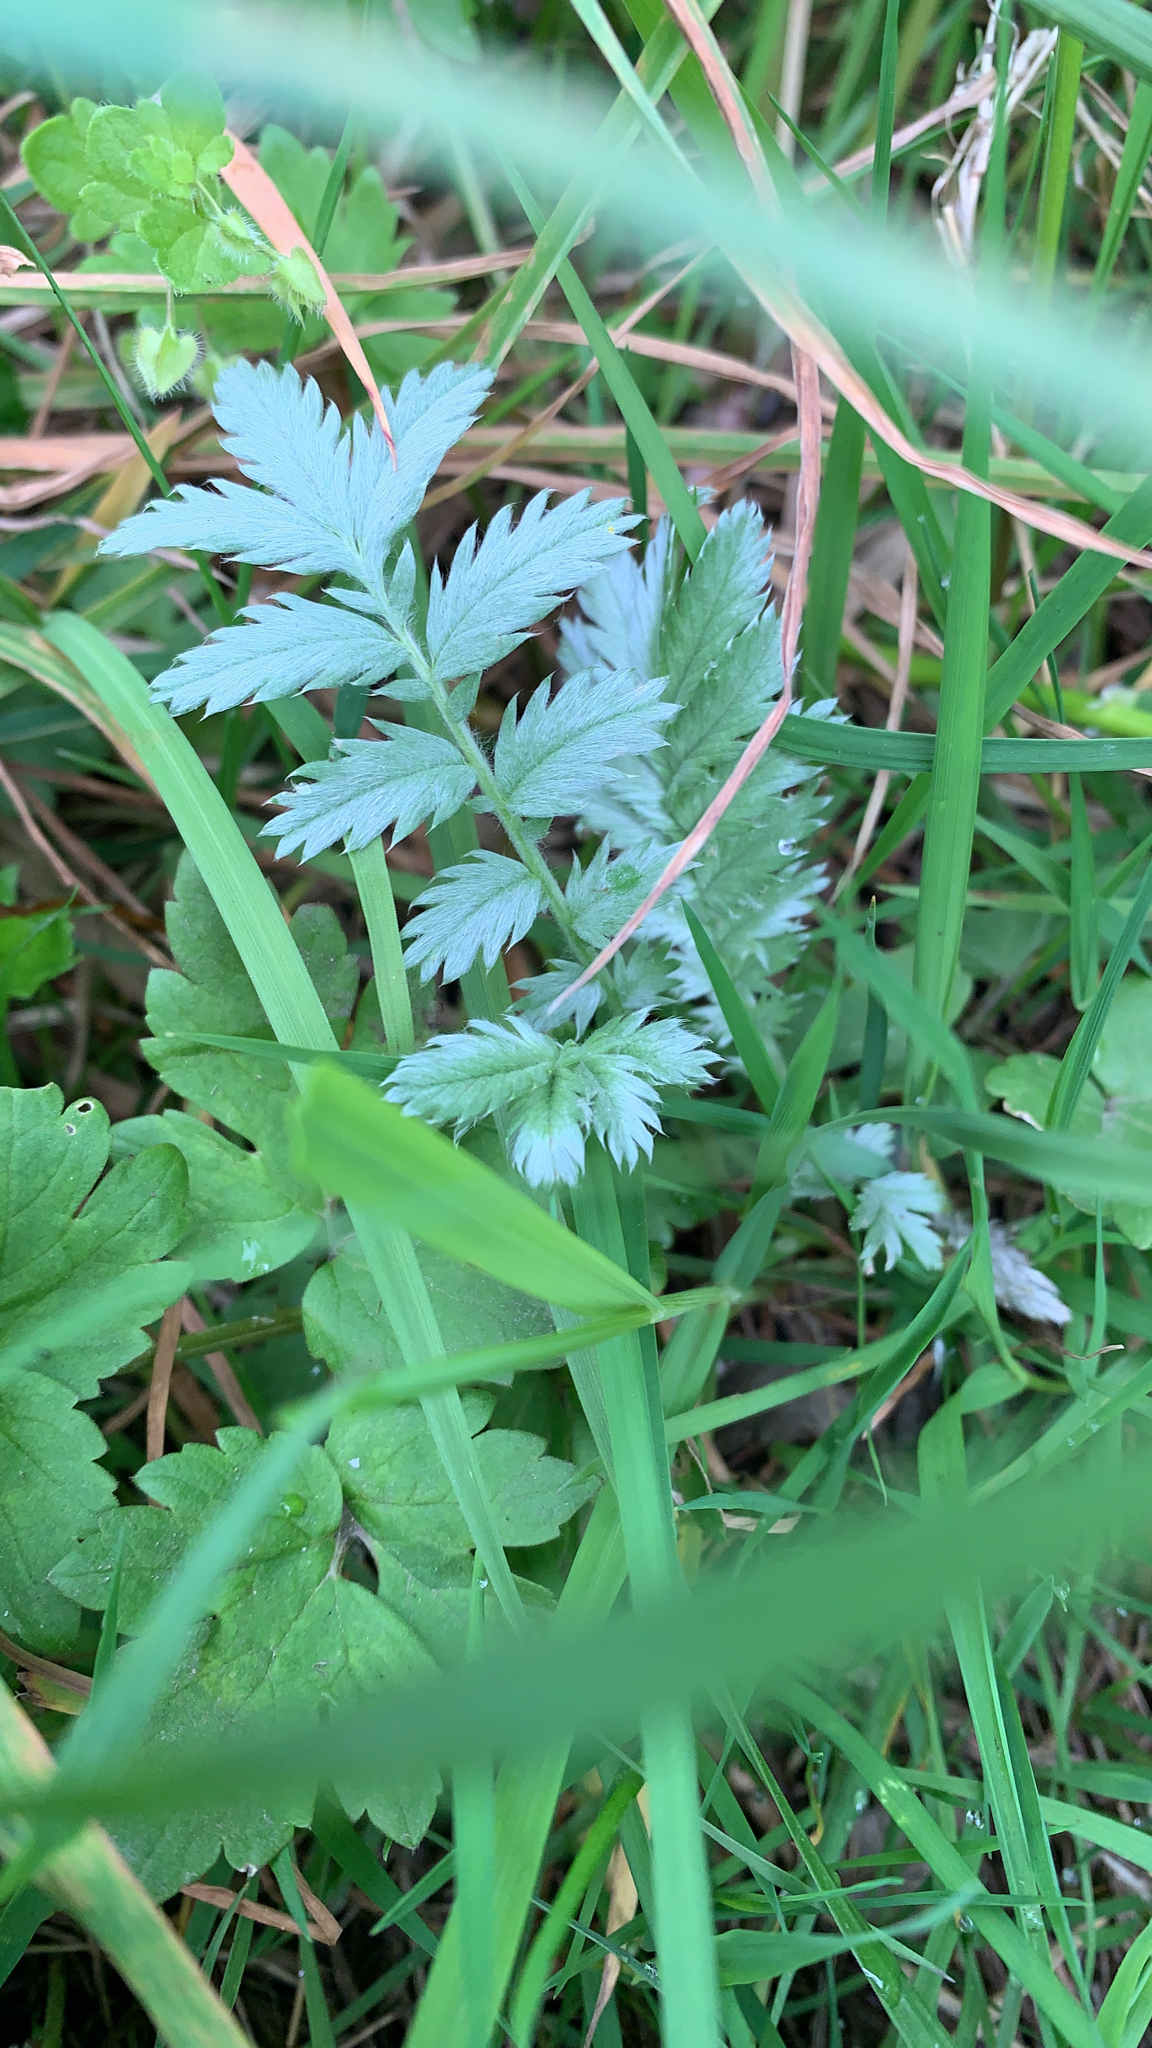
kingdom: Plantae
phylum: Tracheophyta
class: Magnoliopsida
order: Rosales
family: Rosaceae
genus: Argentina
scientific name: Argentina anserina
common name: Common silverweed
